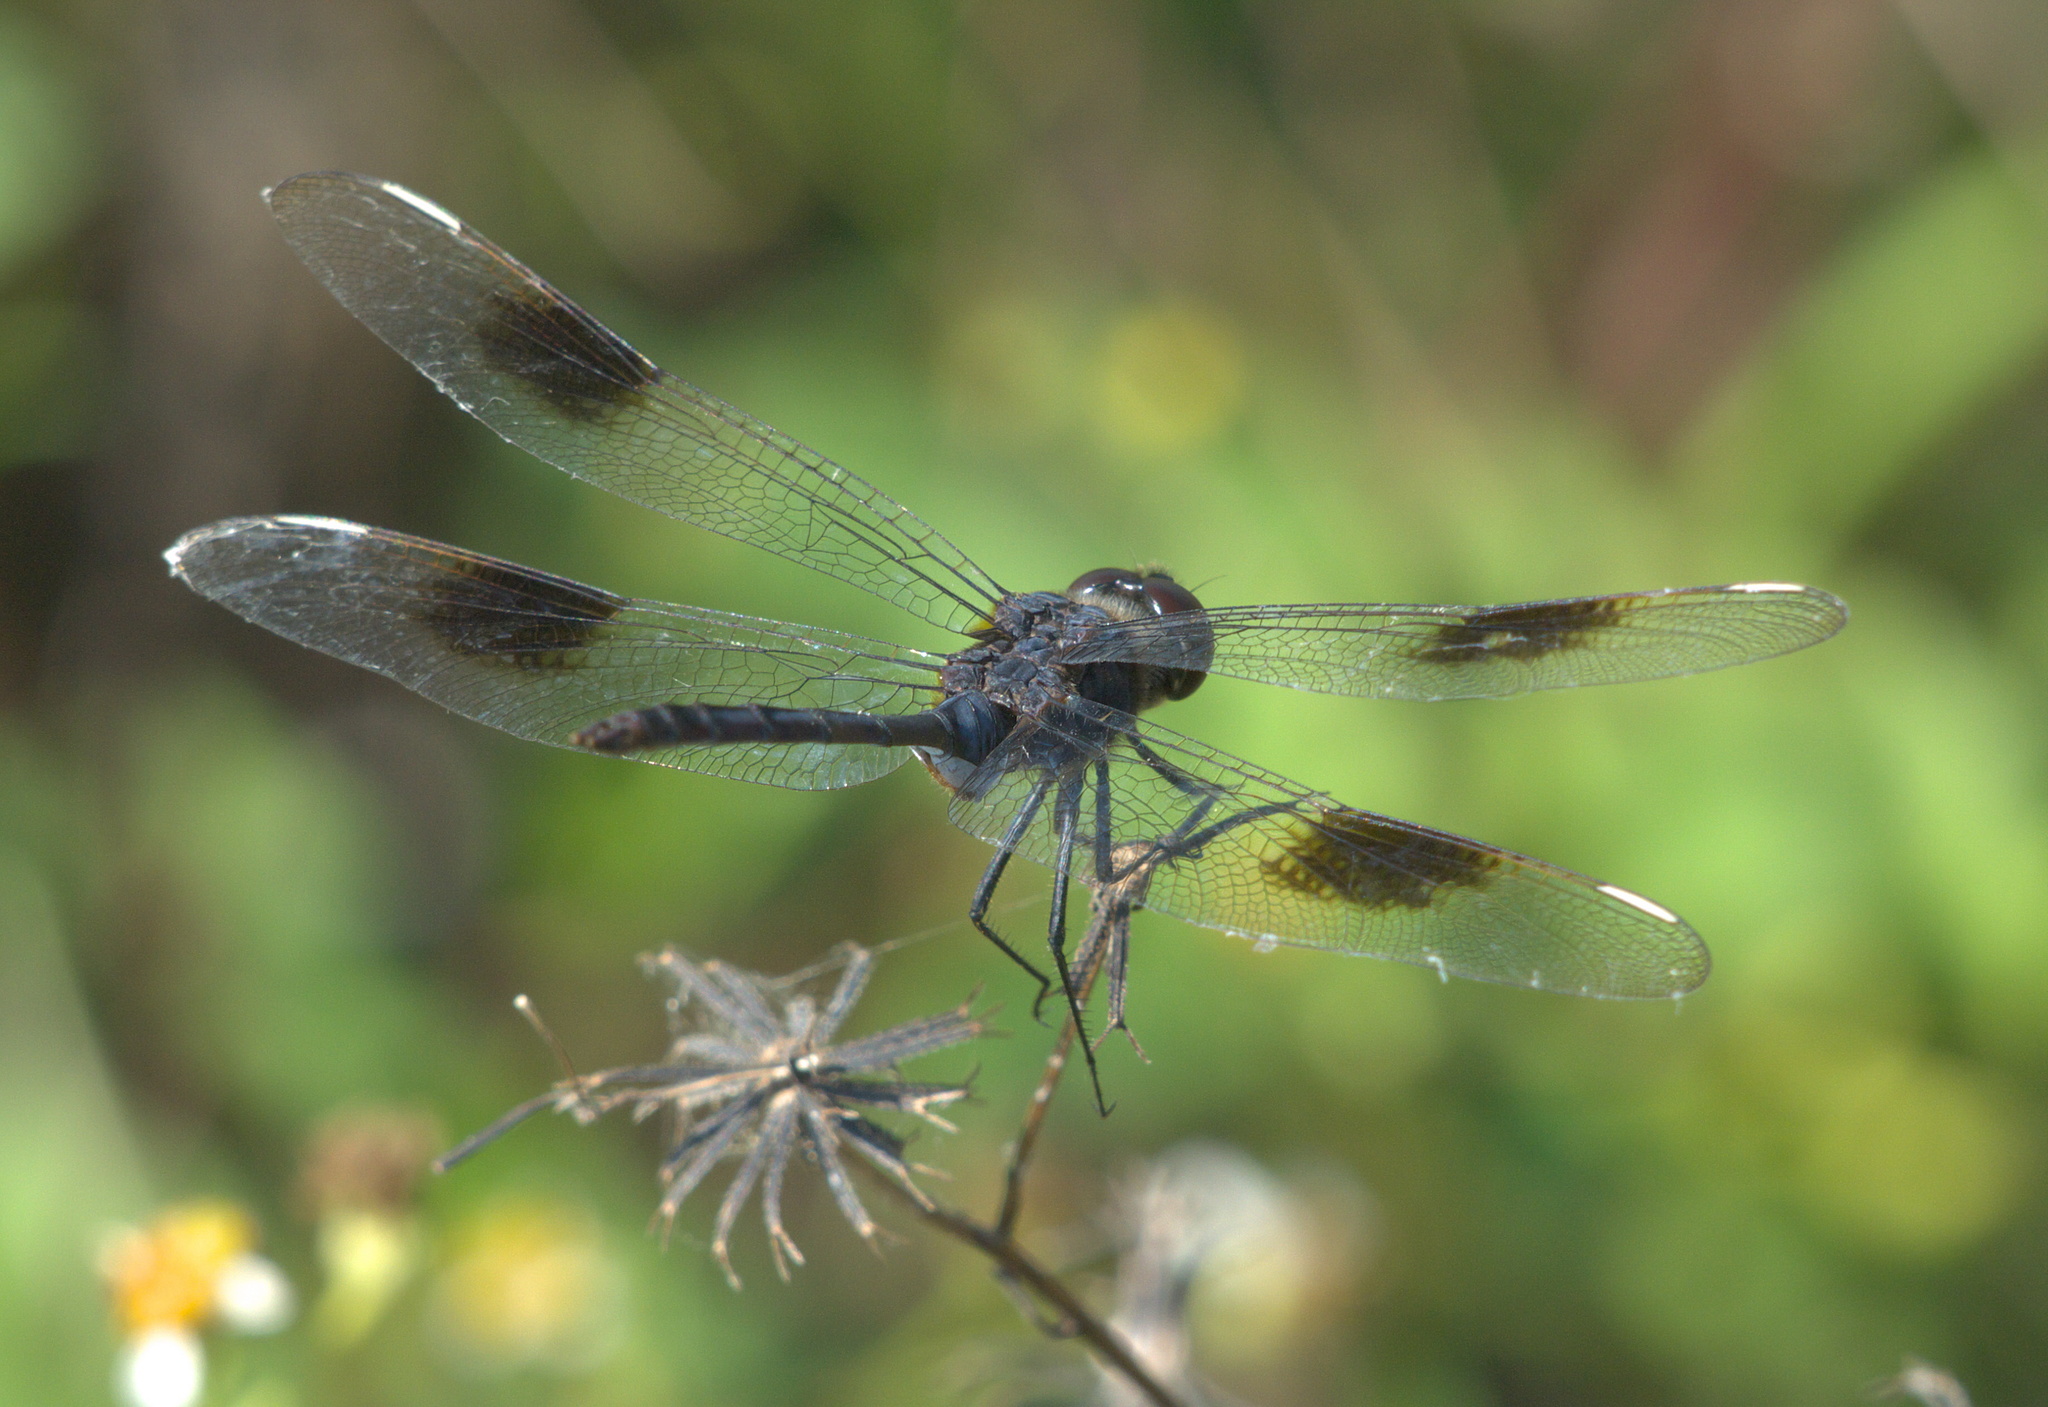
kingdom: Animalia
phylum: Arthropoda
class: Insecta
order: Odonata
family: Libellulidae
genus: Brachymesia
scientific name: Brachymesia gravida
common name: Four-spotted pennant
